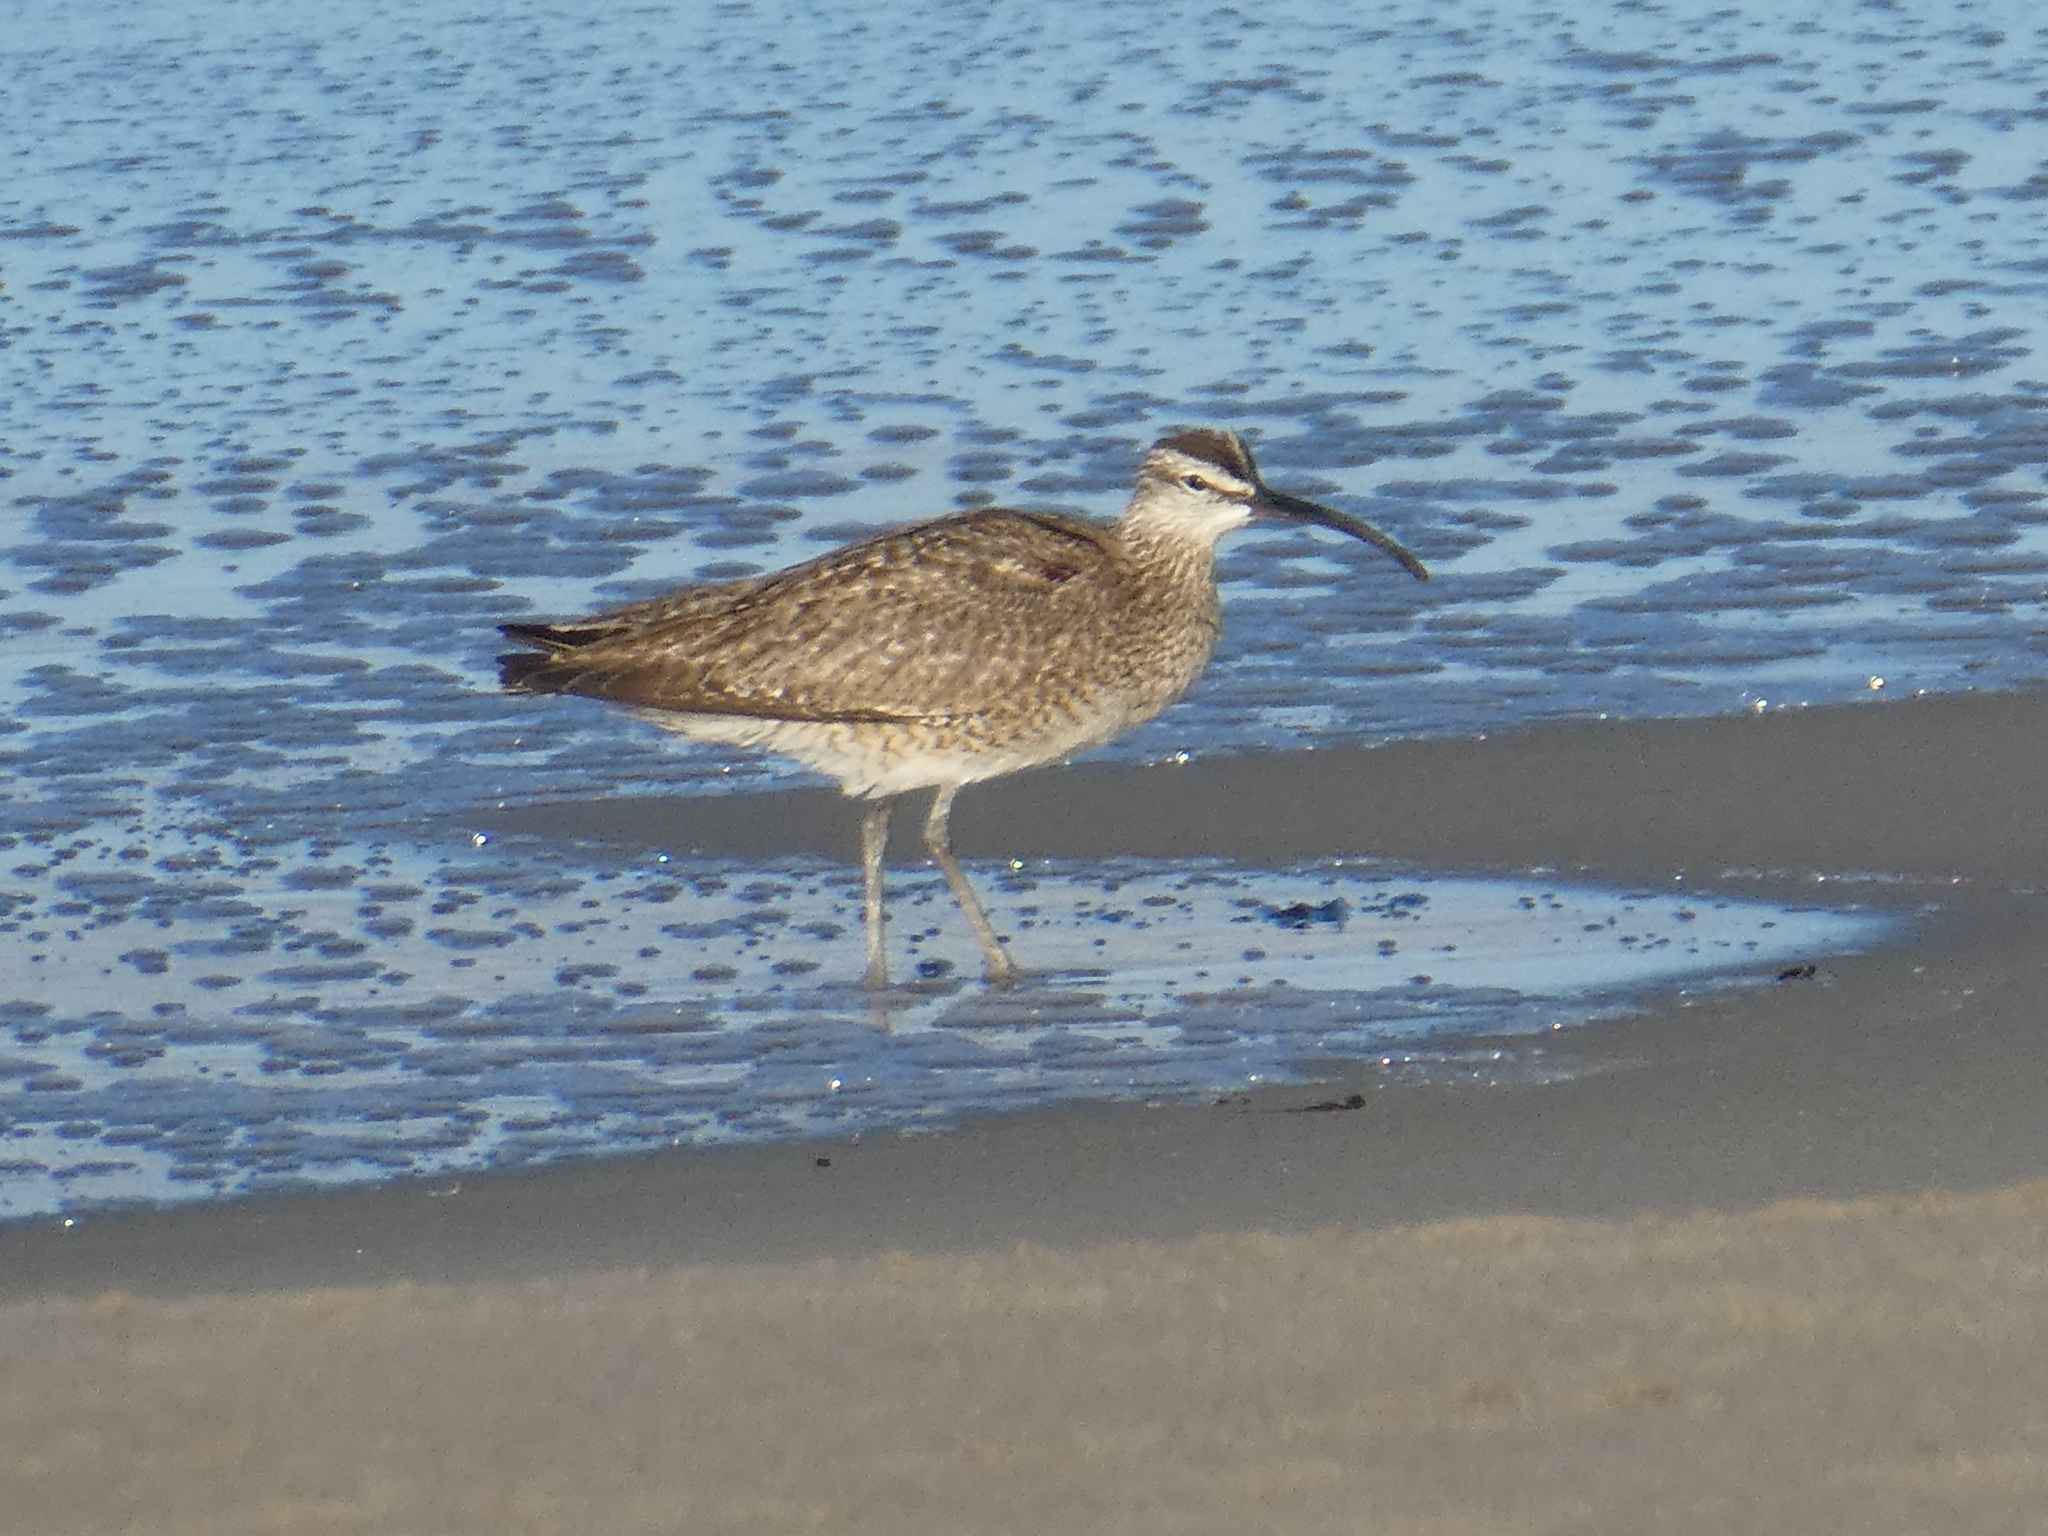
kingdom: Animalia
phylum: Chordata
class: Aves
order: Charadriiformes
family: Scolopacidae
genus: Numenius
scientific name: Numenius phaeopus
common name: Whimbrel
